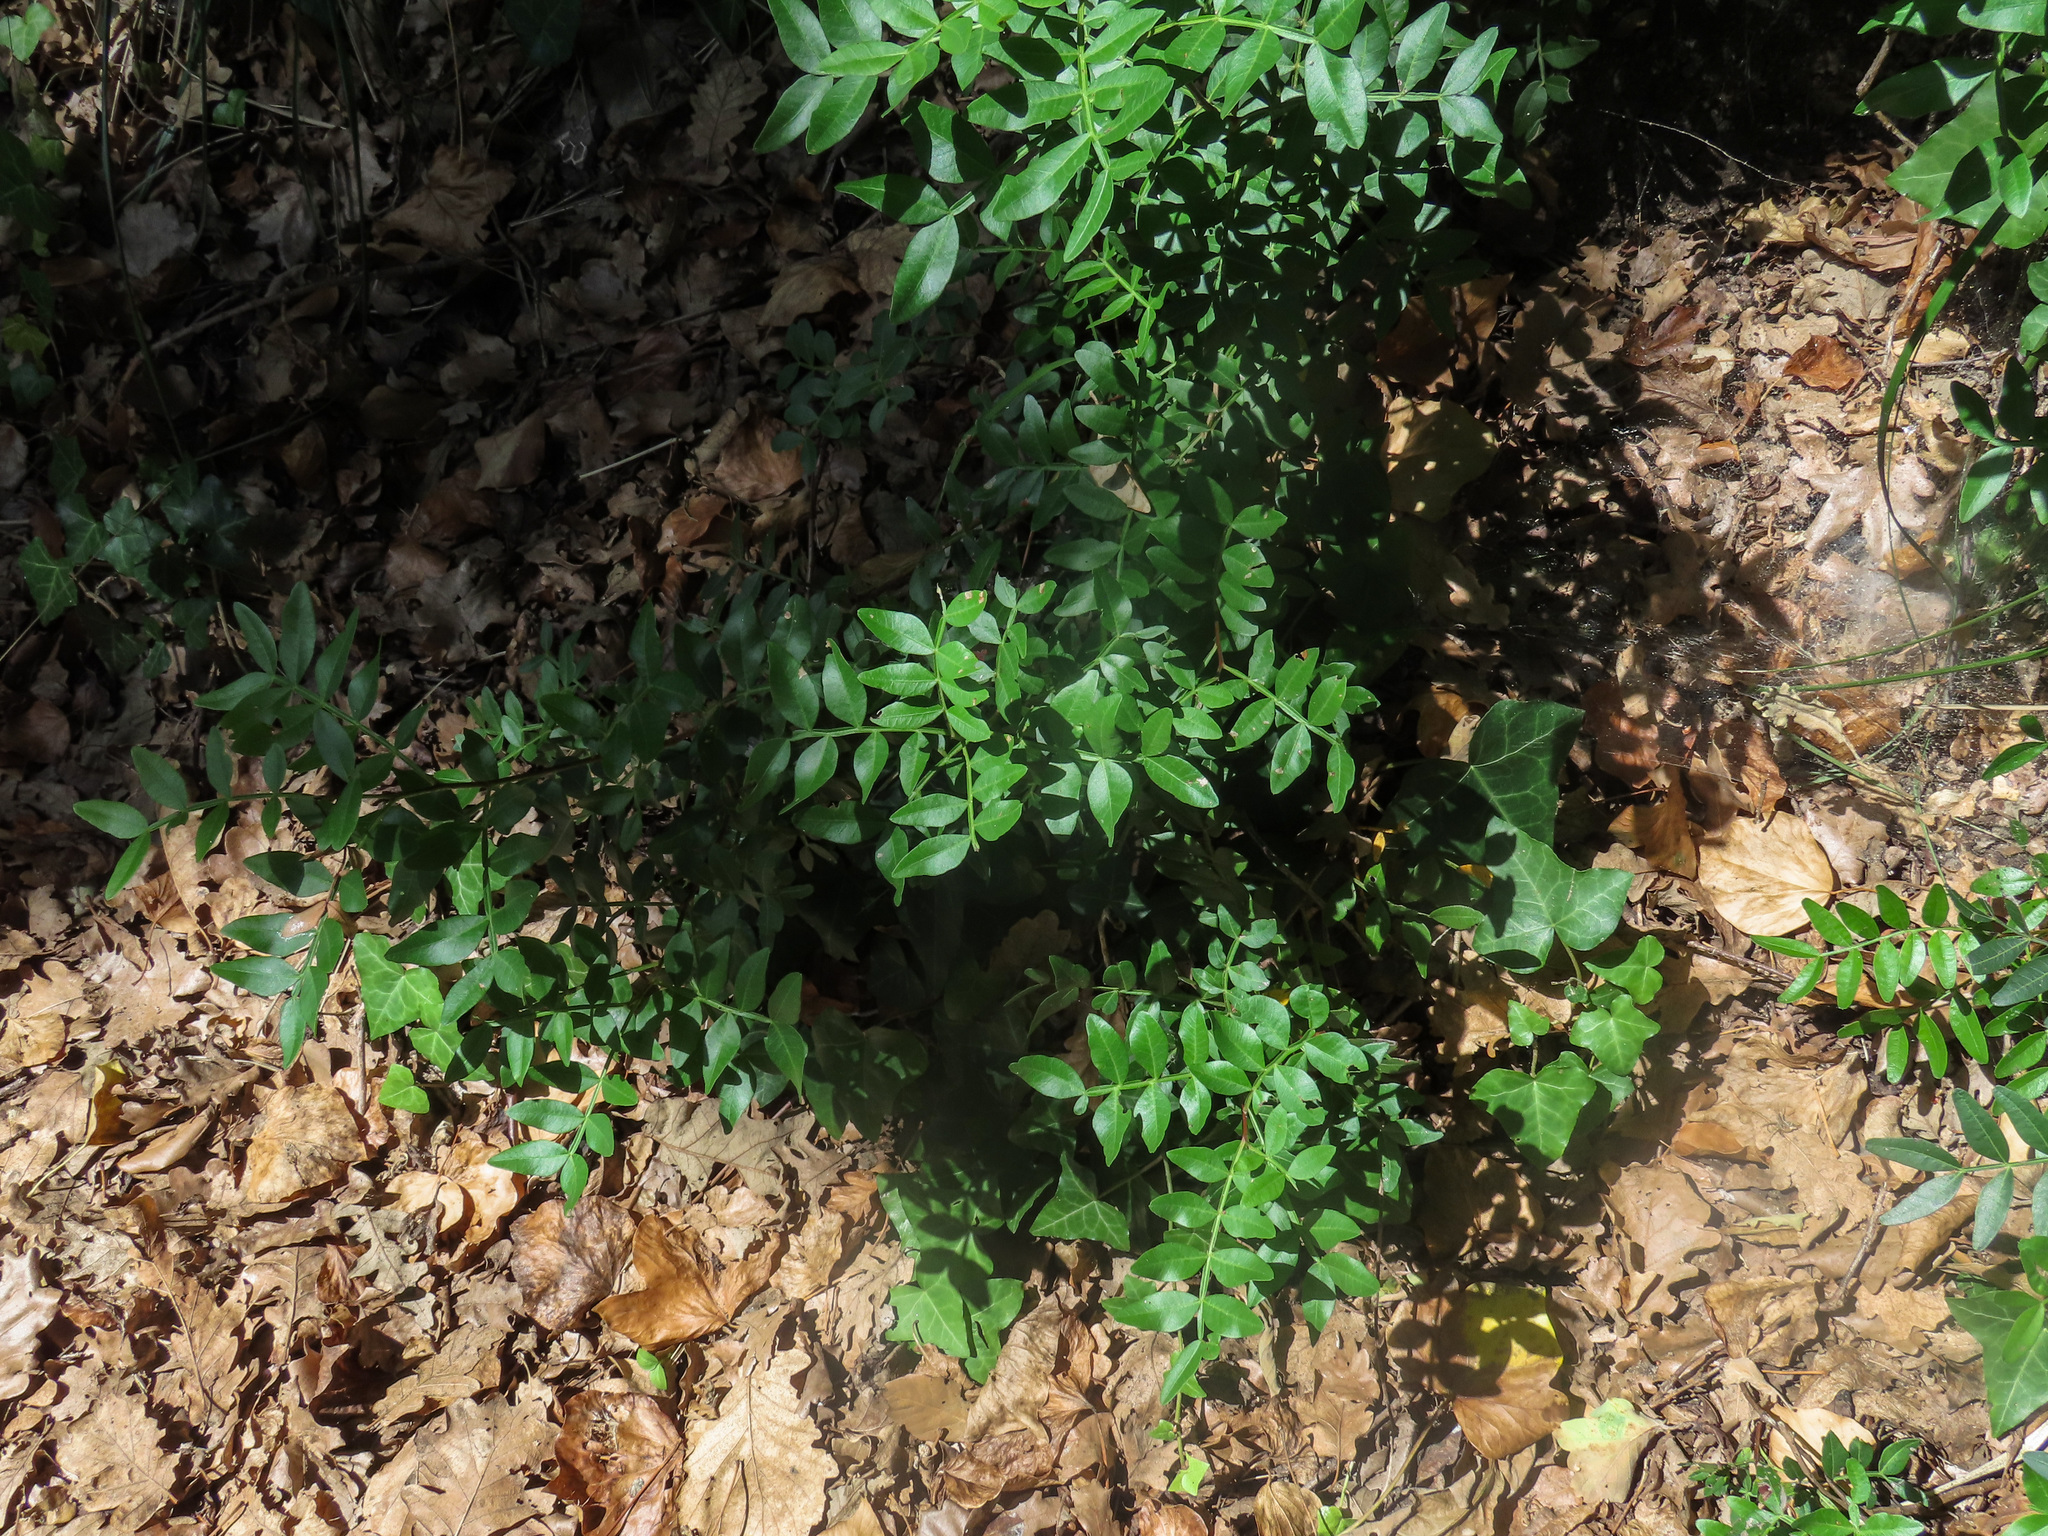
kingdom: Plantae
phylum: Tracheophyta
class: Magnoliopsida
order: Sapindales
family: Anacardiaceae
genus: Pistacia
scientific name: Pistacia lentiscus
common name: Lentisk
